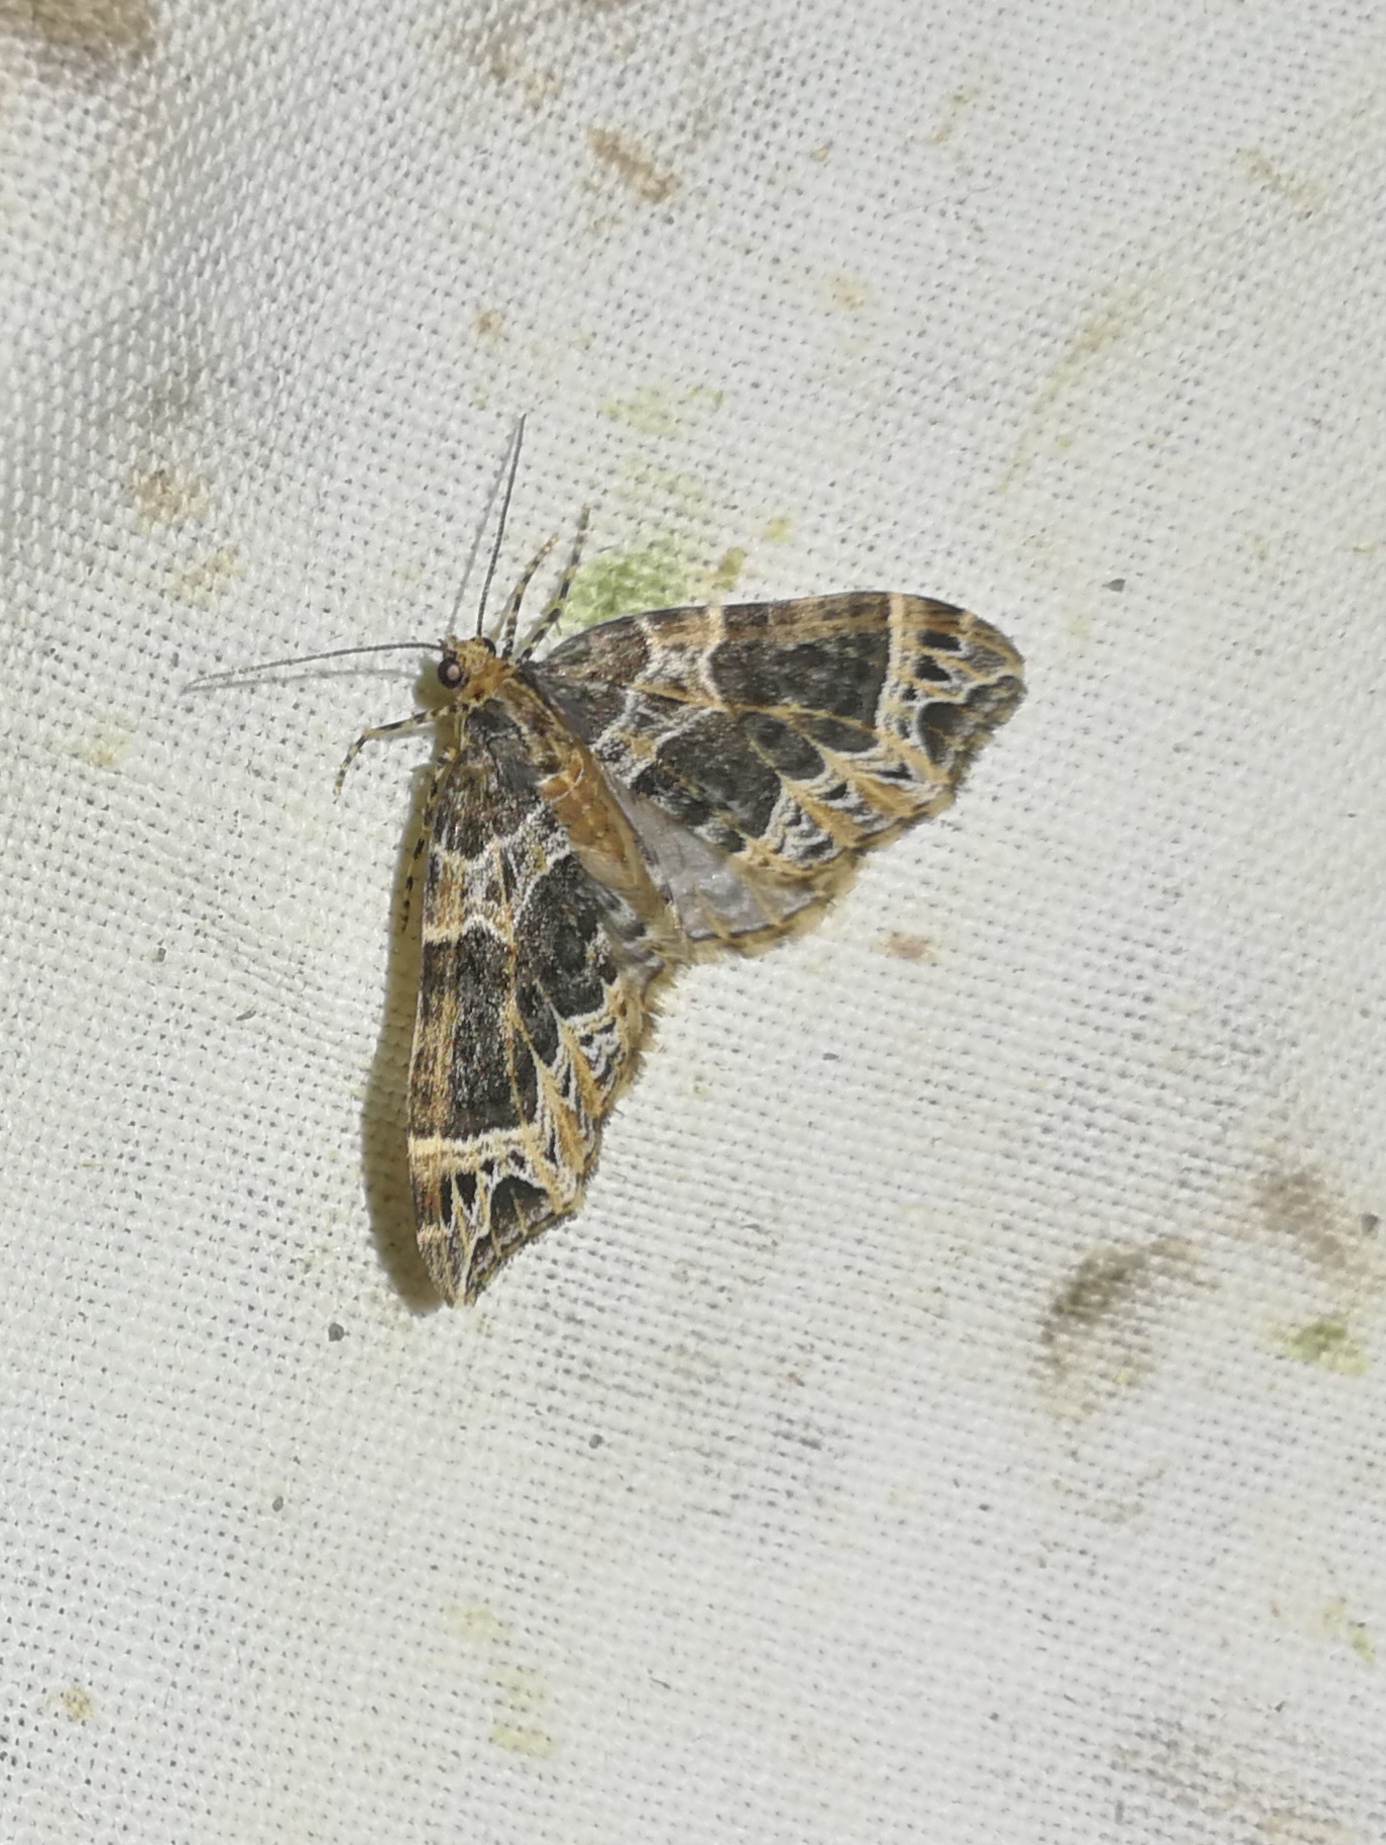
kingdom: Animalia
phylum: Arthropoda
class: Insecta
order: Lepidoptera
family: Geometridae
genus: Ecliptopera
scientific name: Ecliptopera silaceata
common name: Small phoenix
